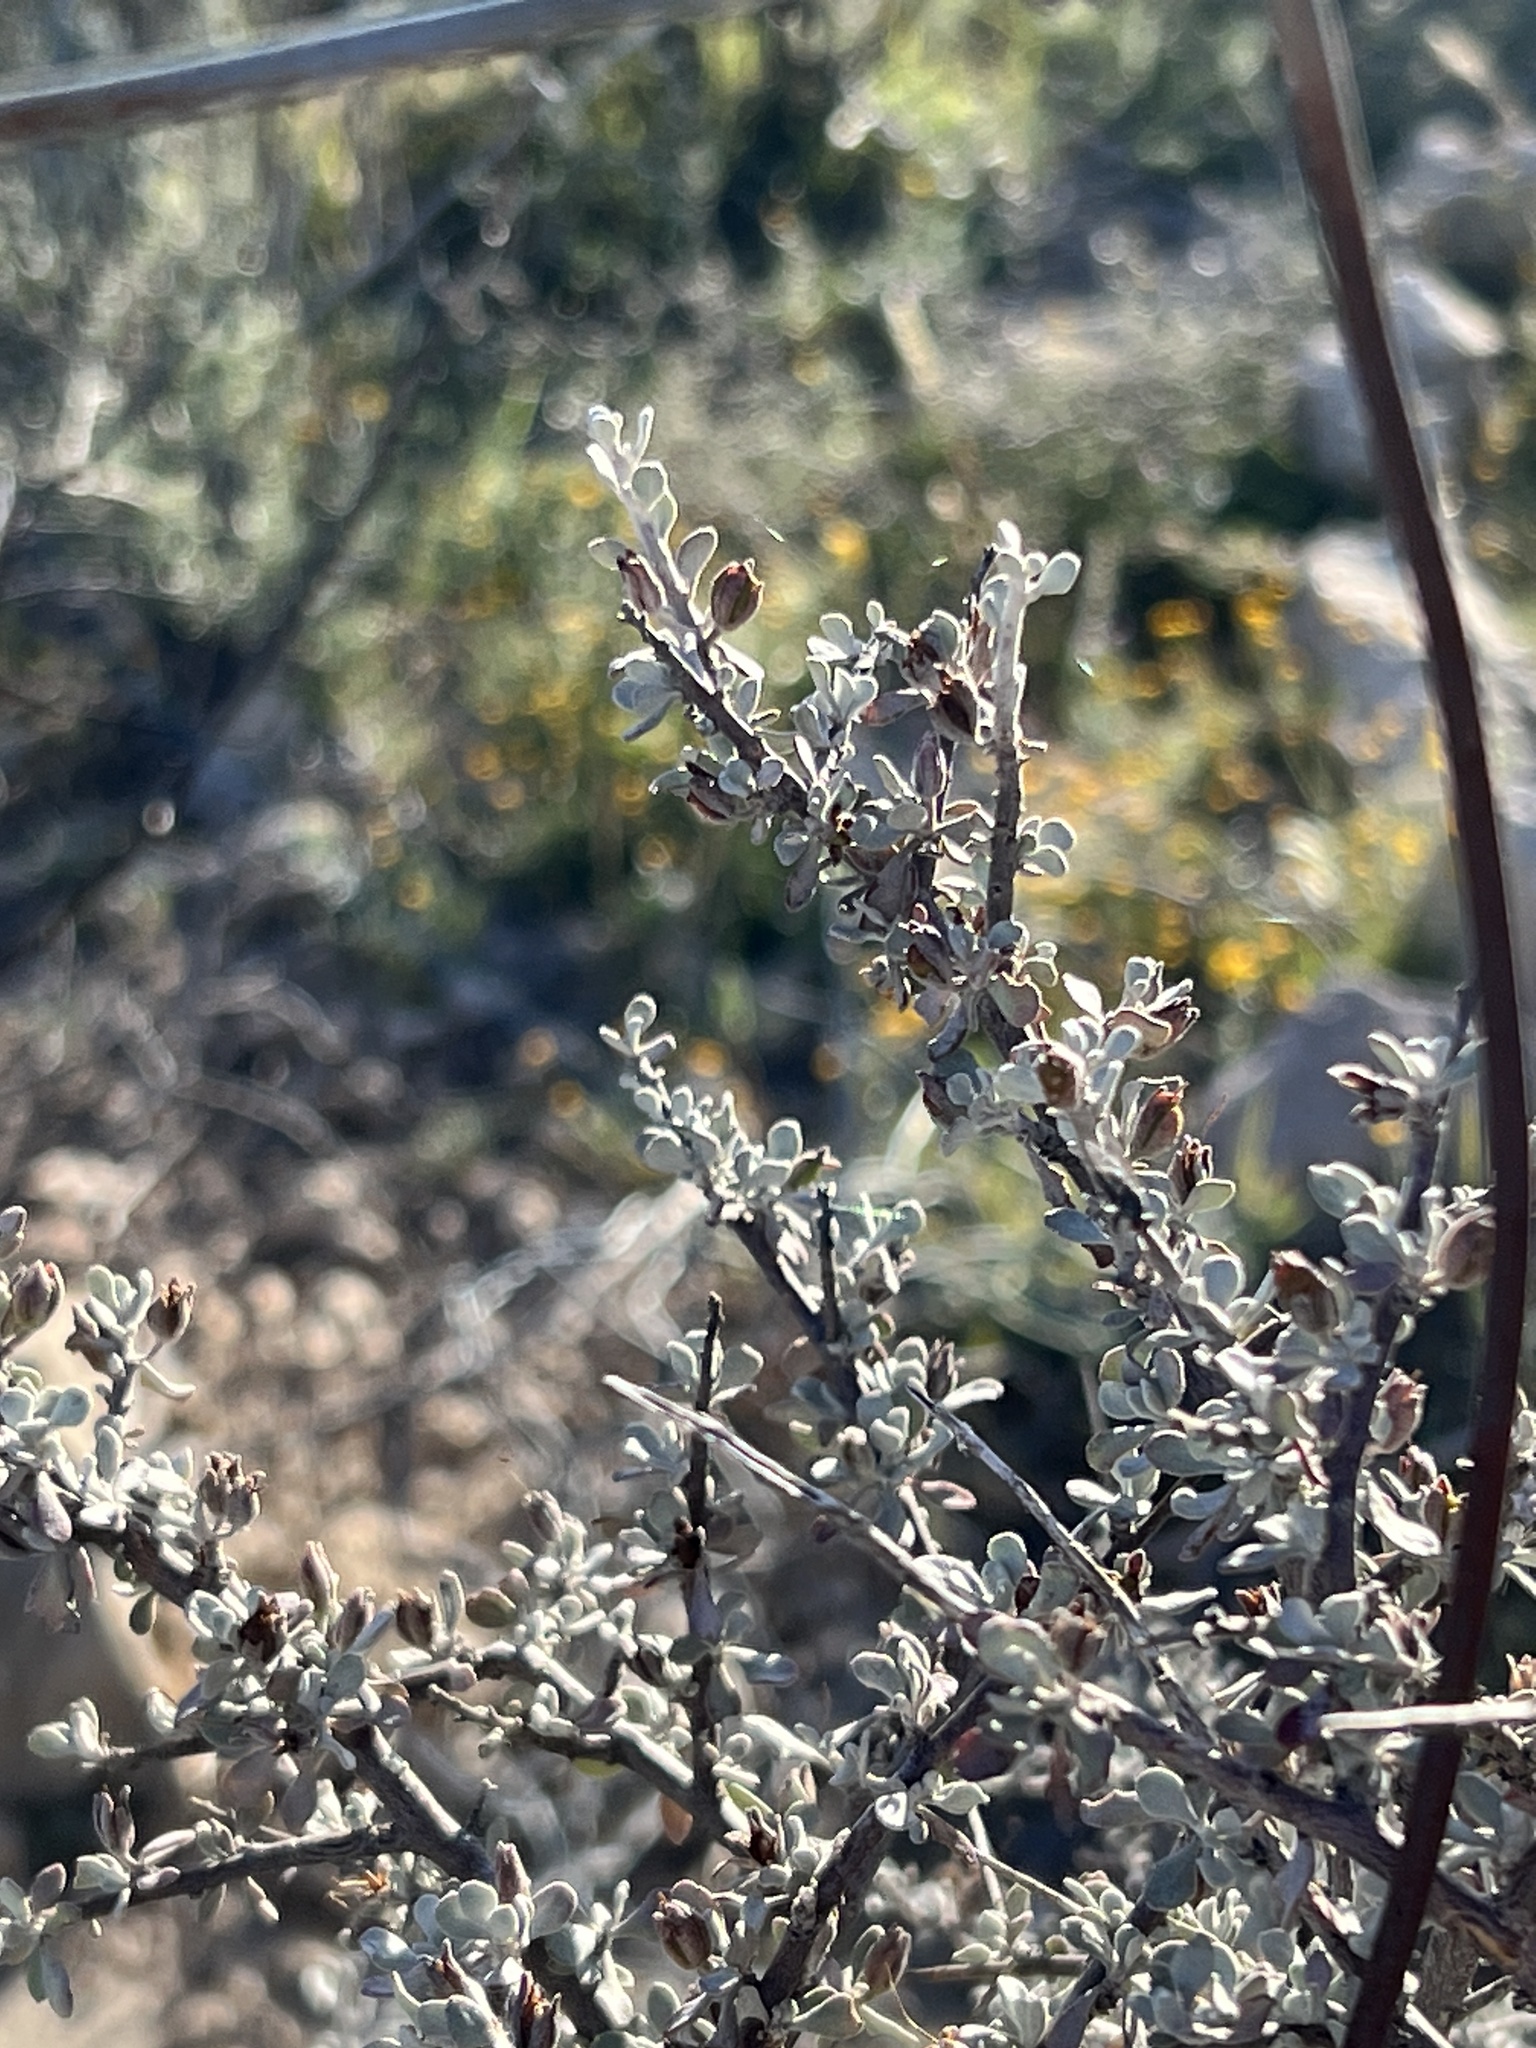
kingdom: Plantae
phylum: Tracheophyta
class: Magnoliopsida
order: Lamiales
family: Scrophulariaceae
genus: Leucophyllum
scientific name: Leucophyllum minus
